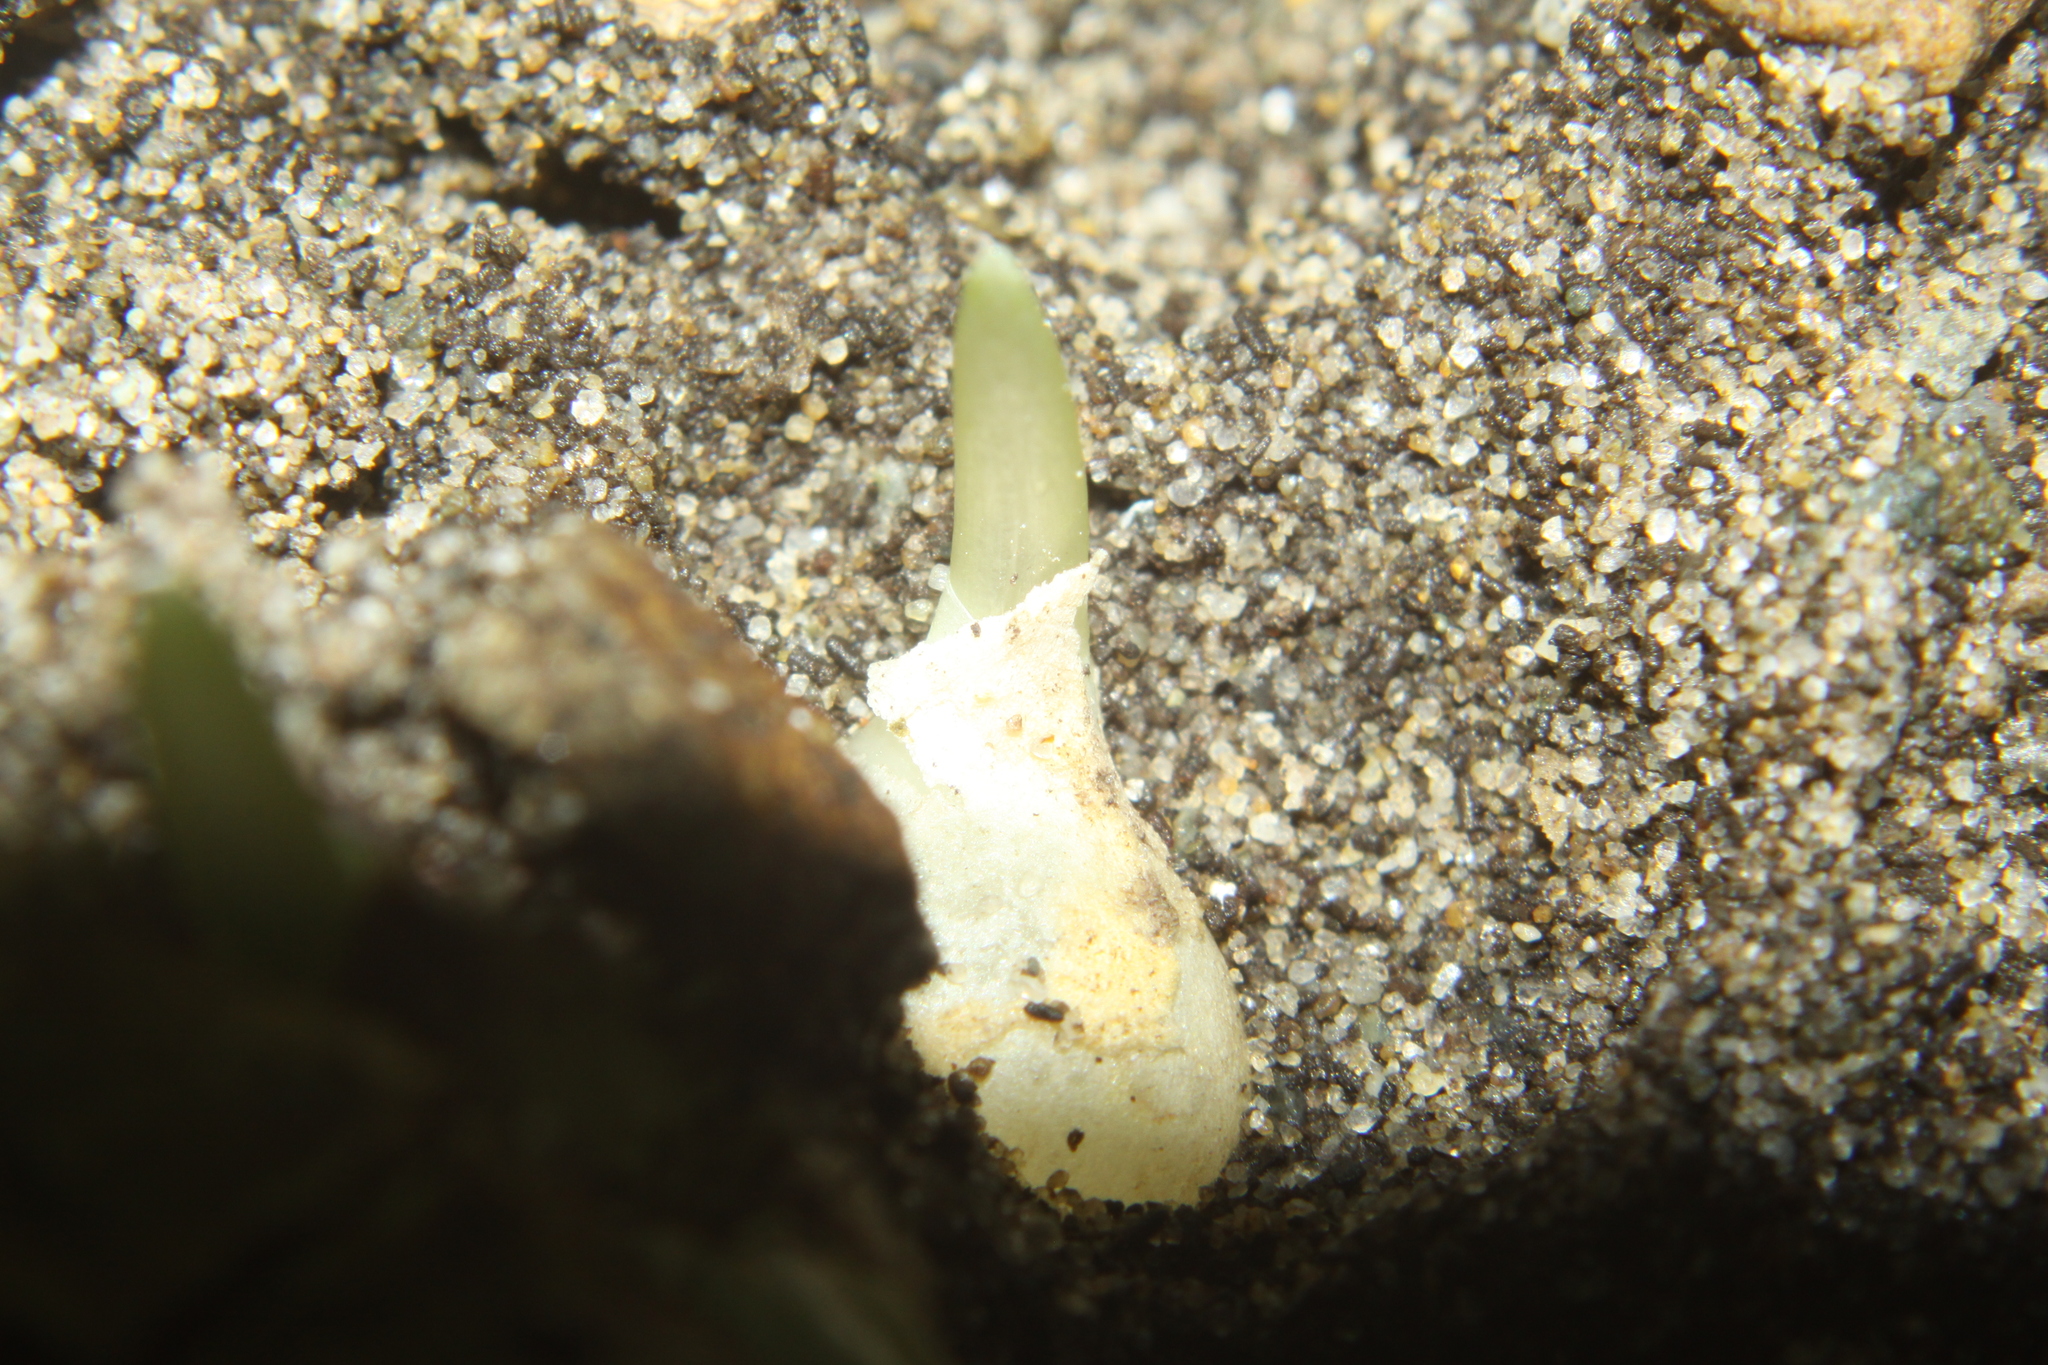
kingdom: Plantae
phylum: Tracheophyta
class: Liliopsida
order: Asparagales
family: Amaryllidaceae
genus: Allium
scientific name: Allium triquetrum
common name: Three-cornered garlic
